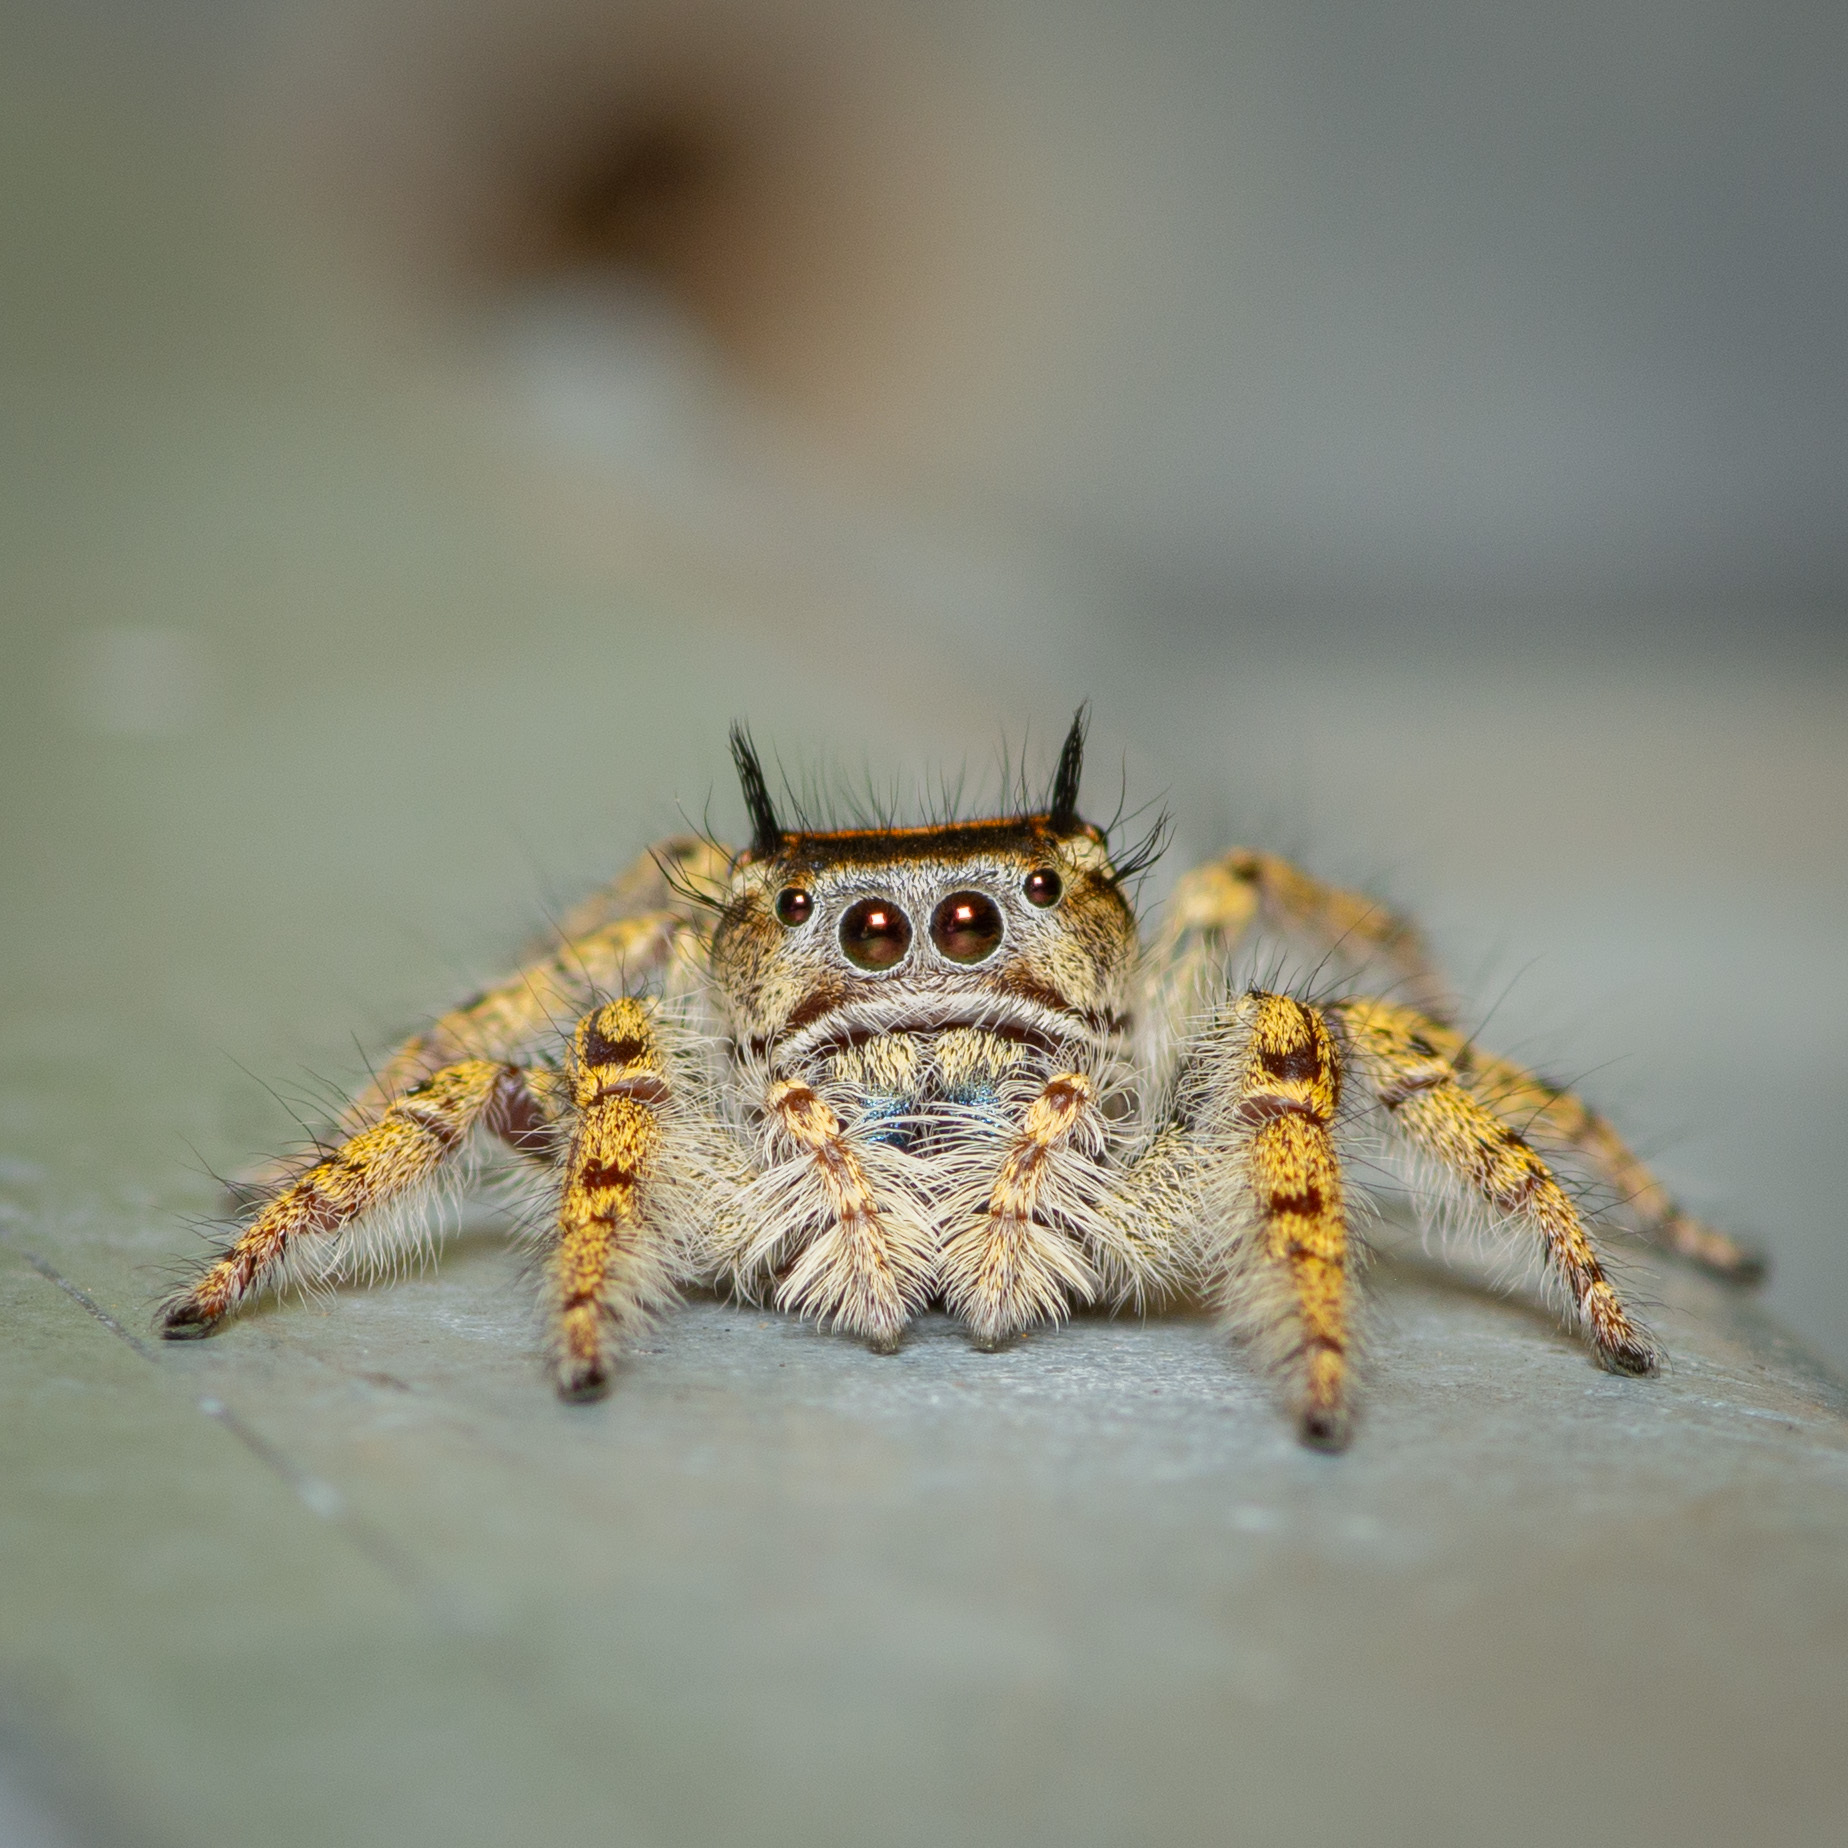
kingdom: Animalia
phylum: Arthropoda
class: Arachnida
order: Araneae
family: Salticidae
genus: Phidippus
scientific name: Phidippus arizonensis
